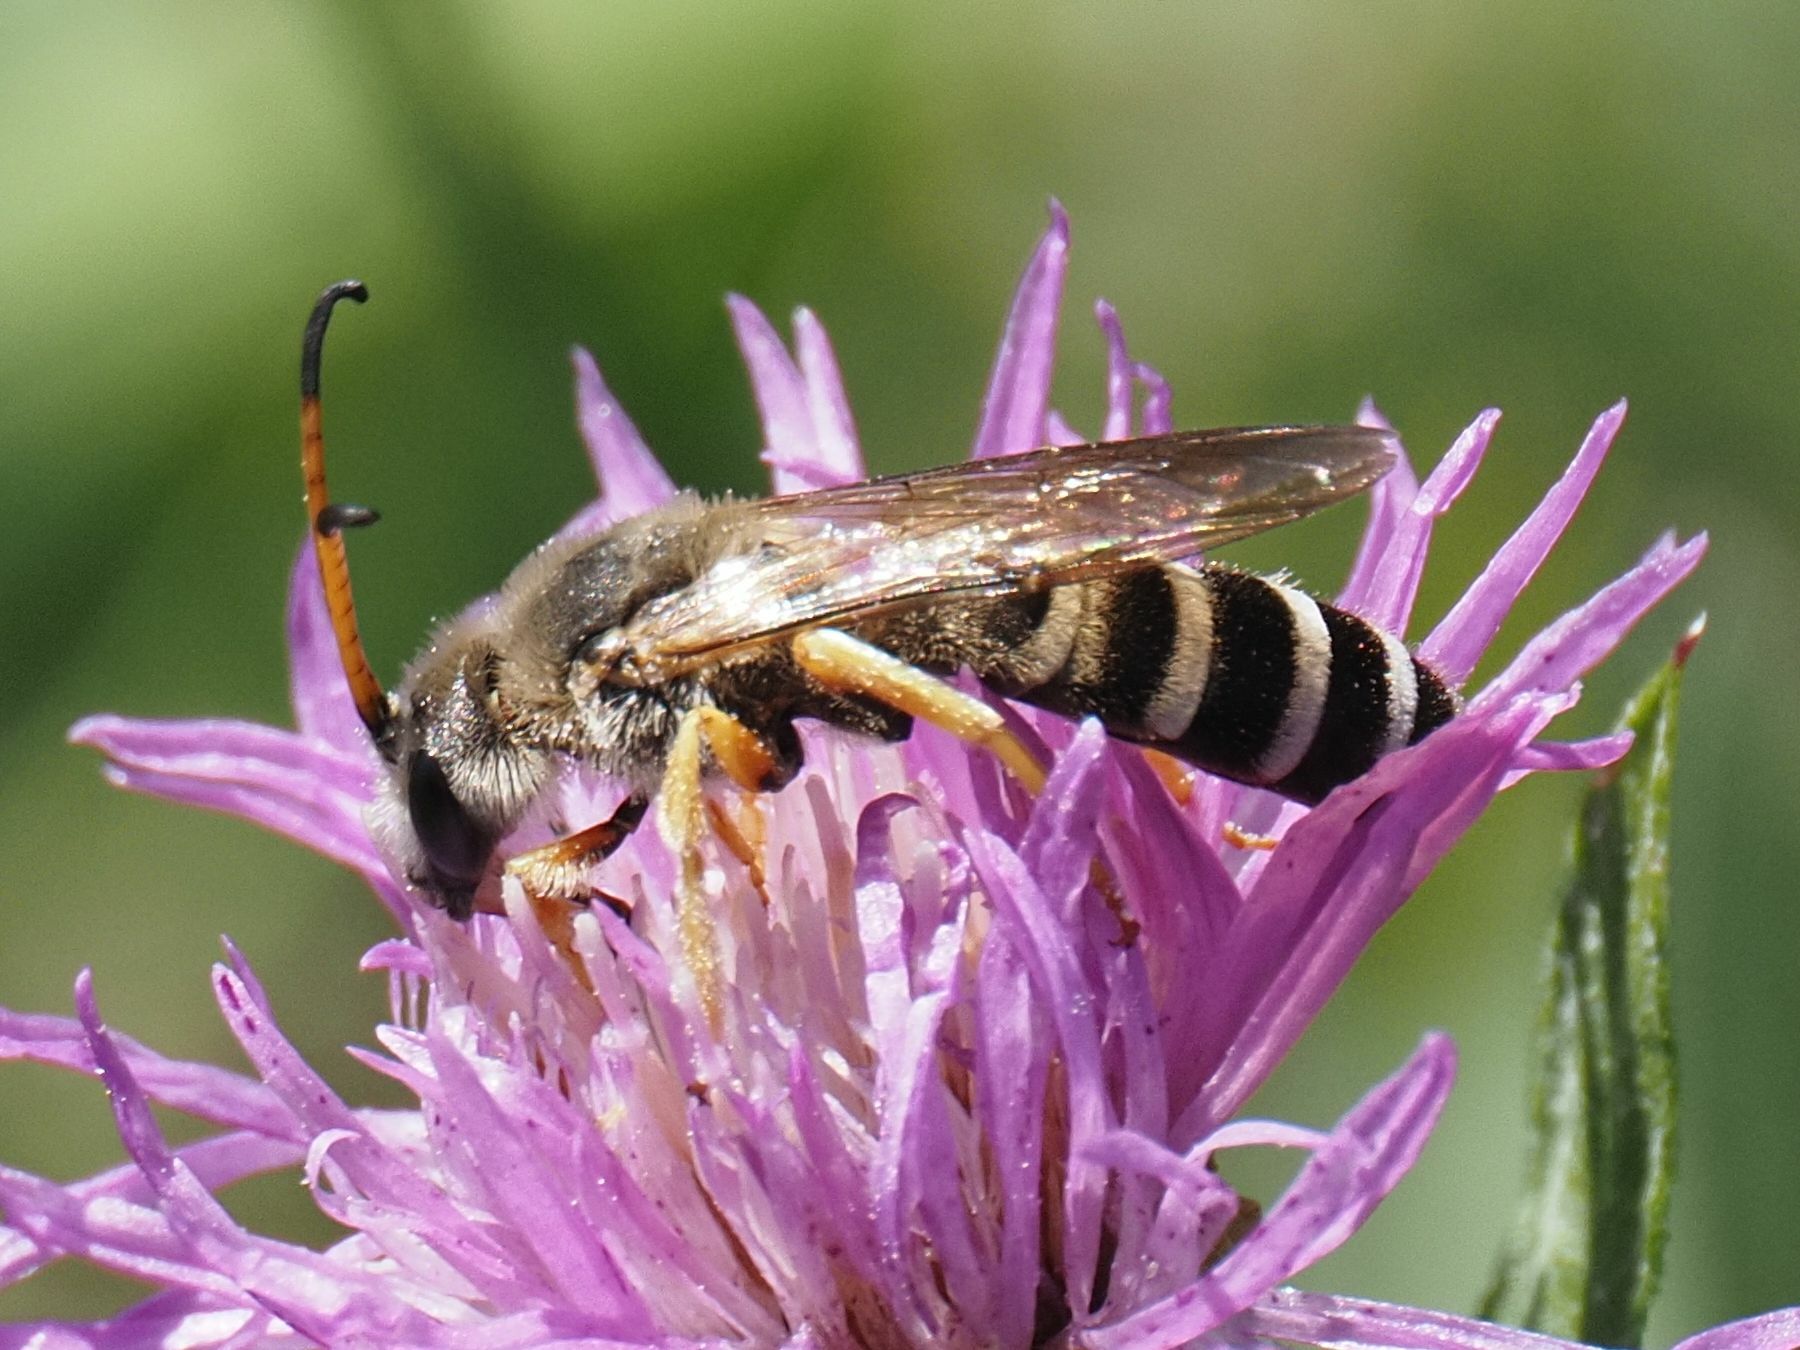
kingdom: Animalia
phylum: Arthropoda
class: Insecta
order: Hymenoptera
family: Halictidae
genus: Halictus
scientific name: Halictus sexcinctus
